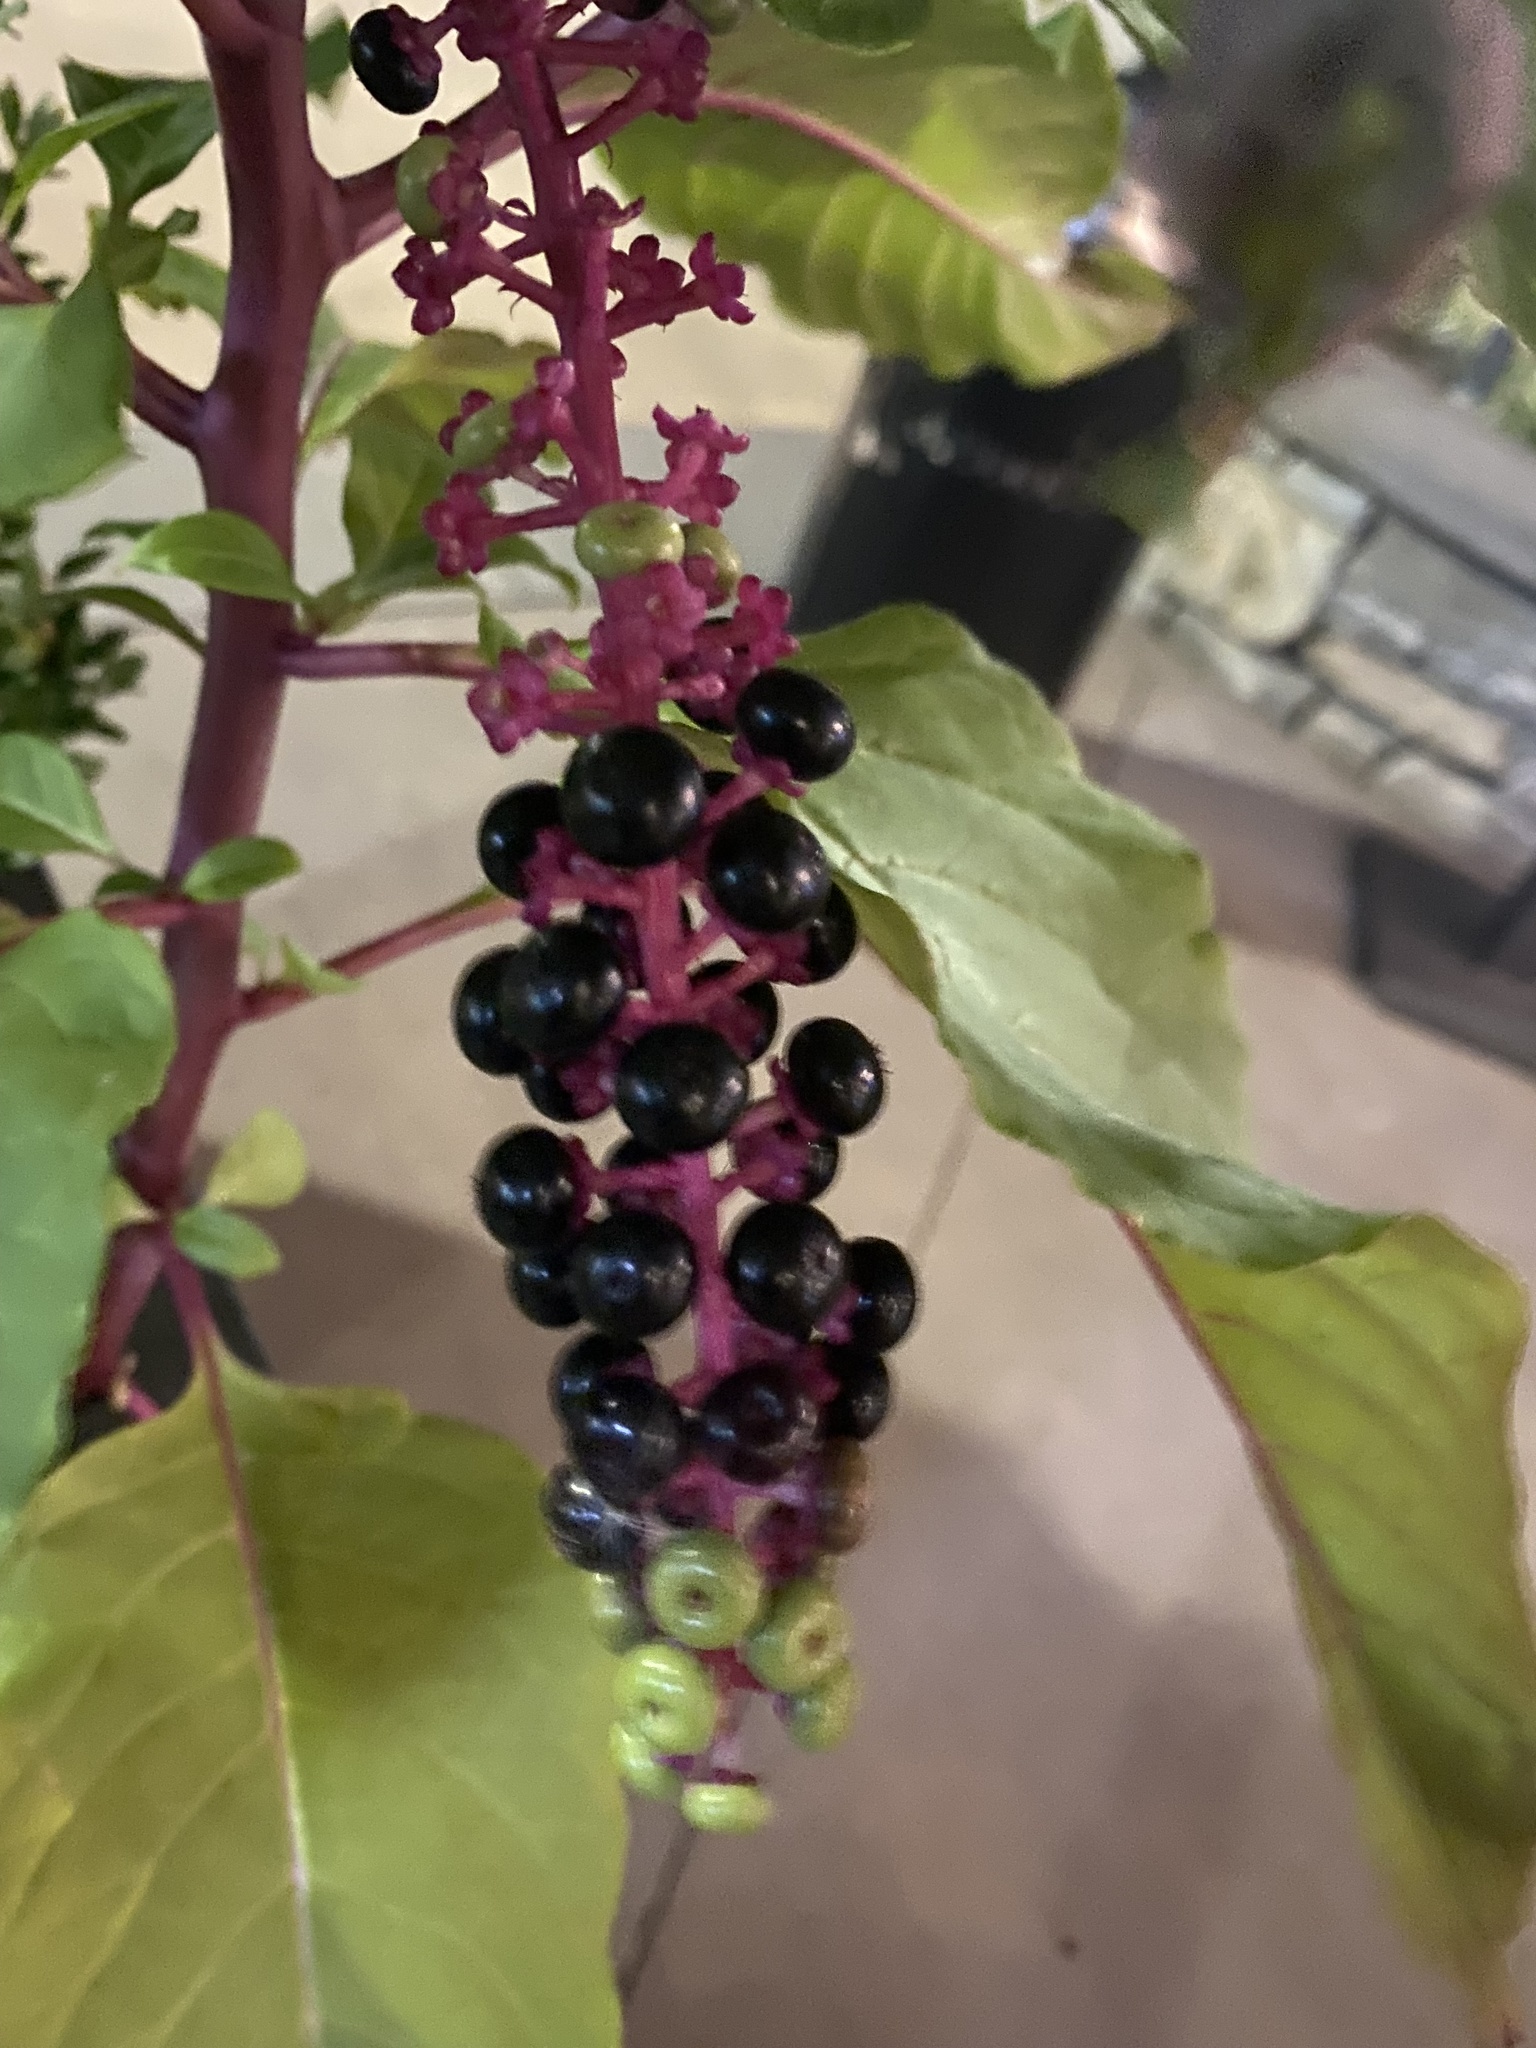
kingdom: Plantae
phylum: Tracheophyta
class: Magnoliopsida
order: Caryophyllales
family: Phytolaccaceae
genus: Phytolacca
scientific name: Phytolacca americana
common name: American pokeweed
